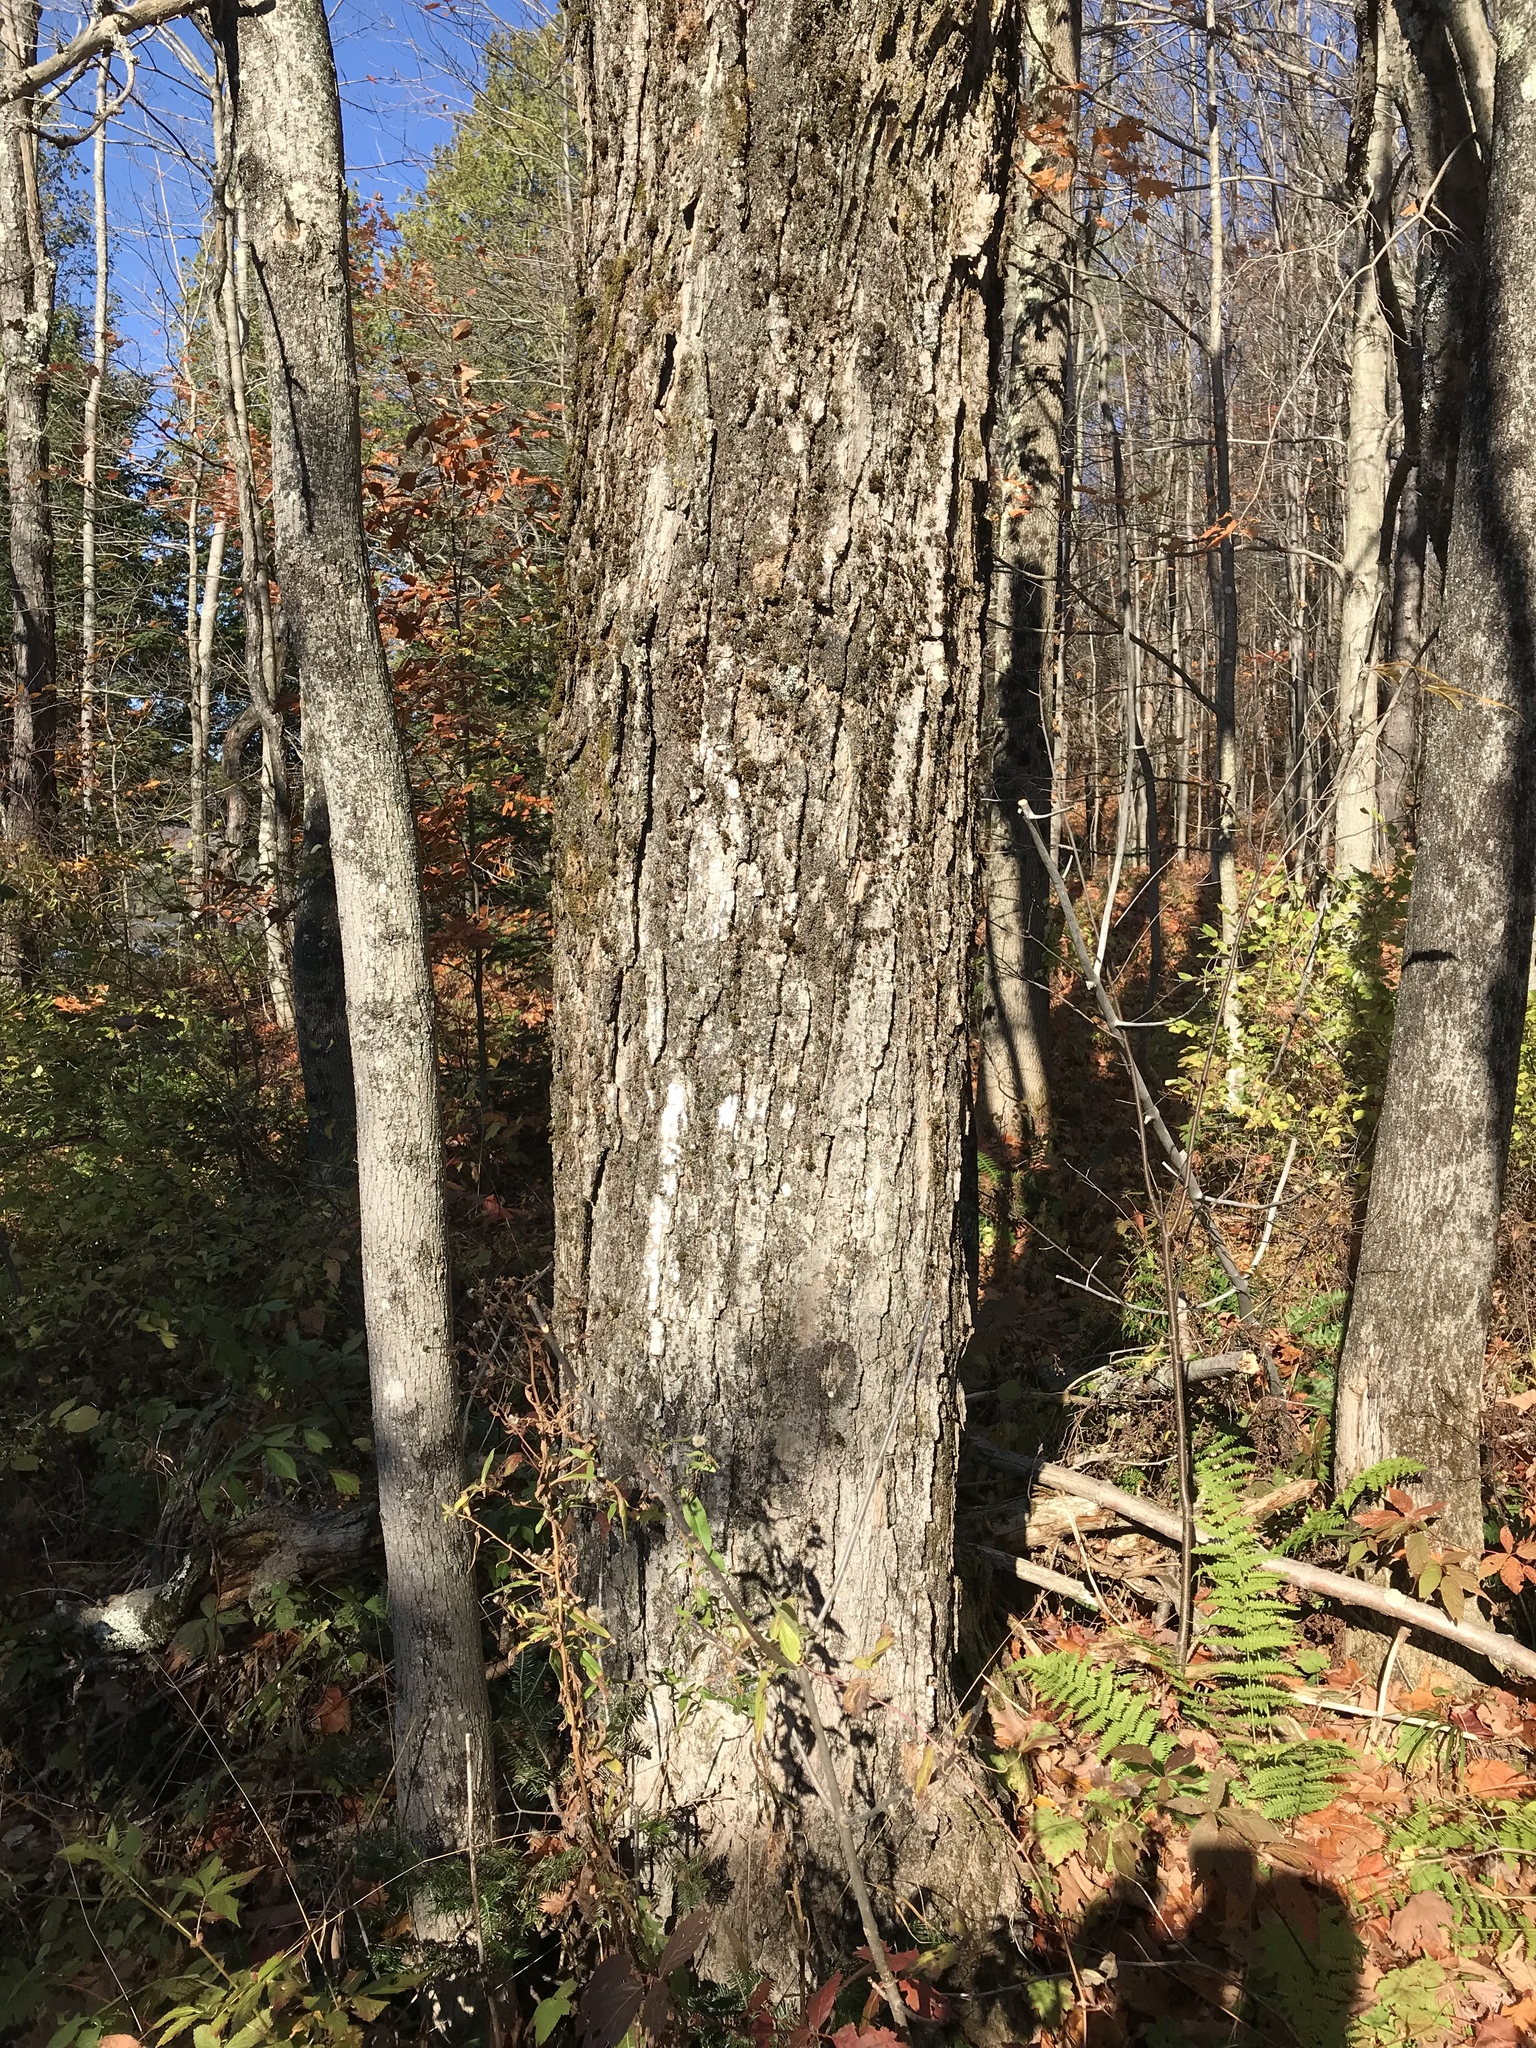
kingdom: Plantae
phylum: Tracheophyta
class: Magnoliopsida
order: Sapindales
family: Sapindaceae
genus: Acer
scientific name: Acer saccharum
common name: Sugar maple
